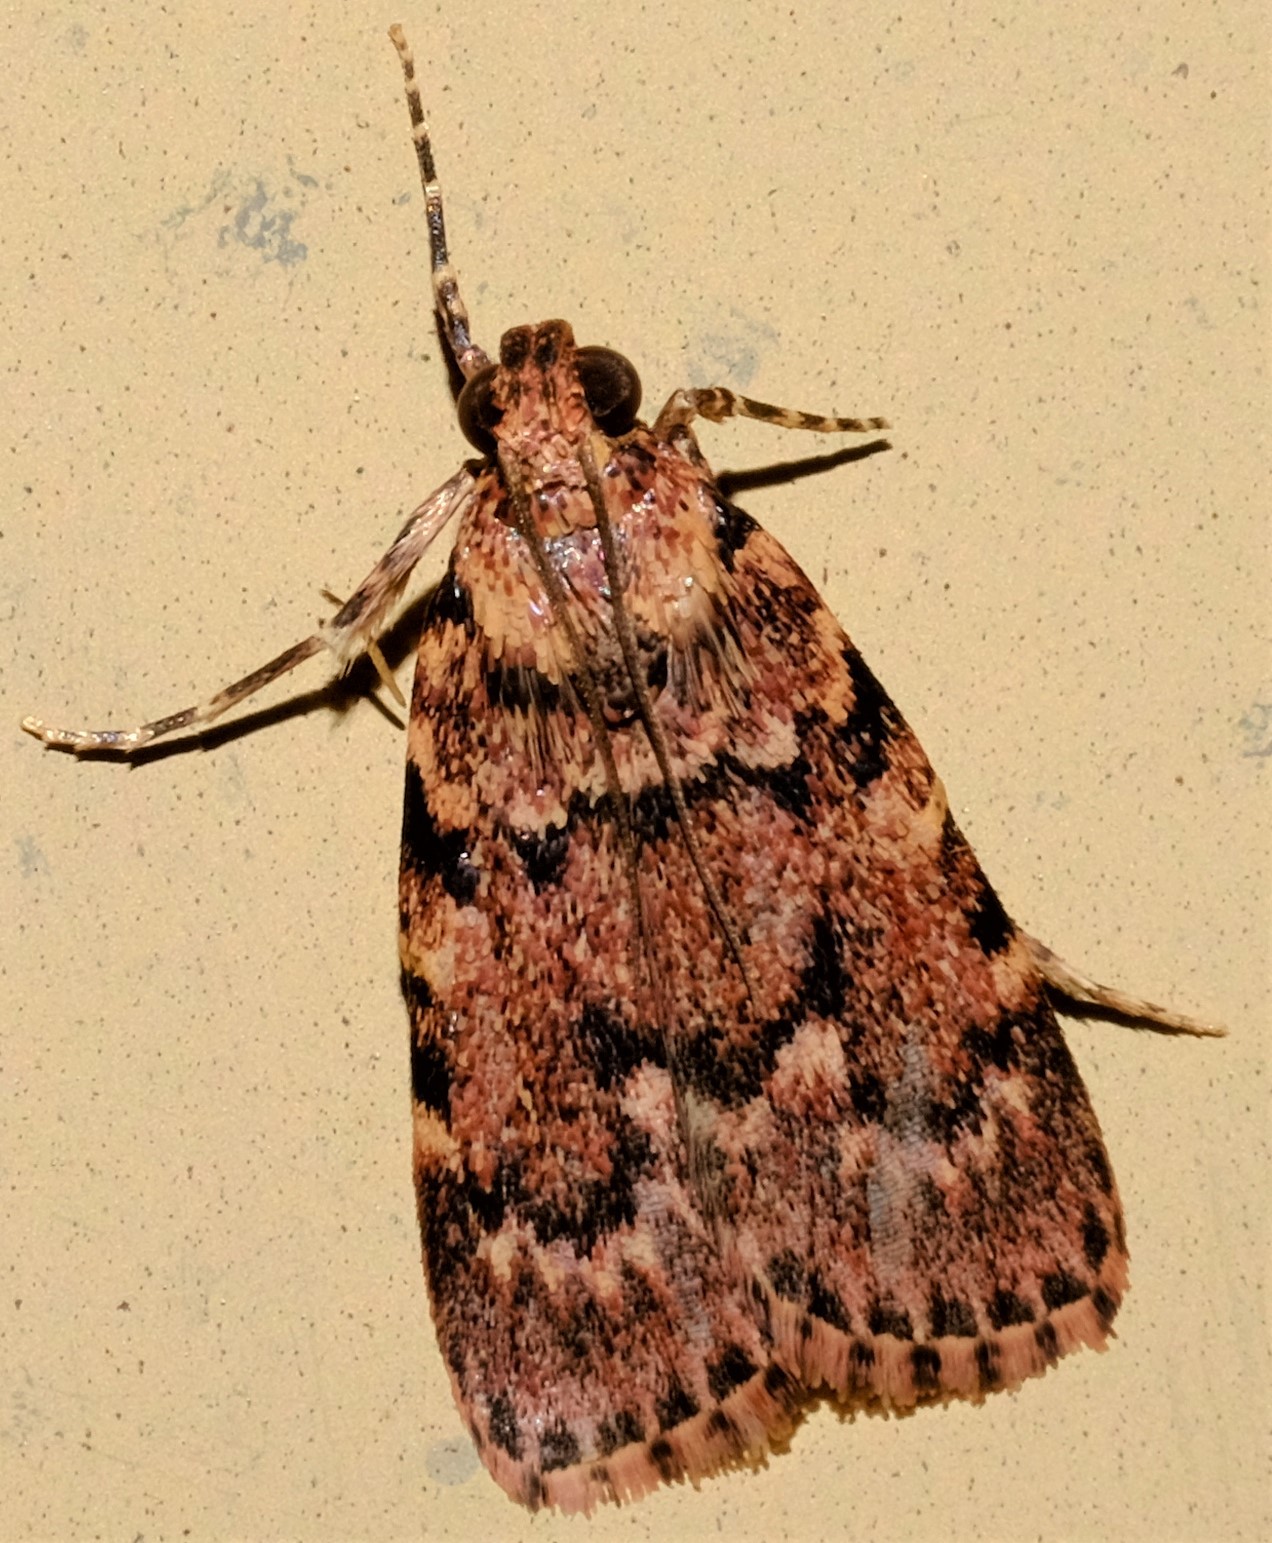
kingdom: Animalia
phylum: Arthropoda
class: Insecta
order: Lepidoptera
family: Pyralidae
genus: Mimaglossa
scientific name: Mimaglossa nauplialis
